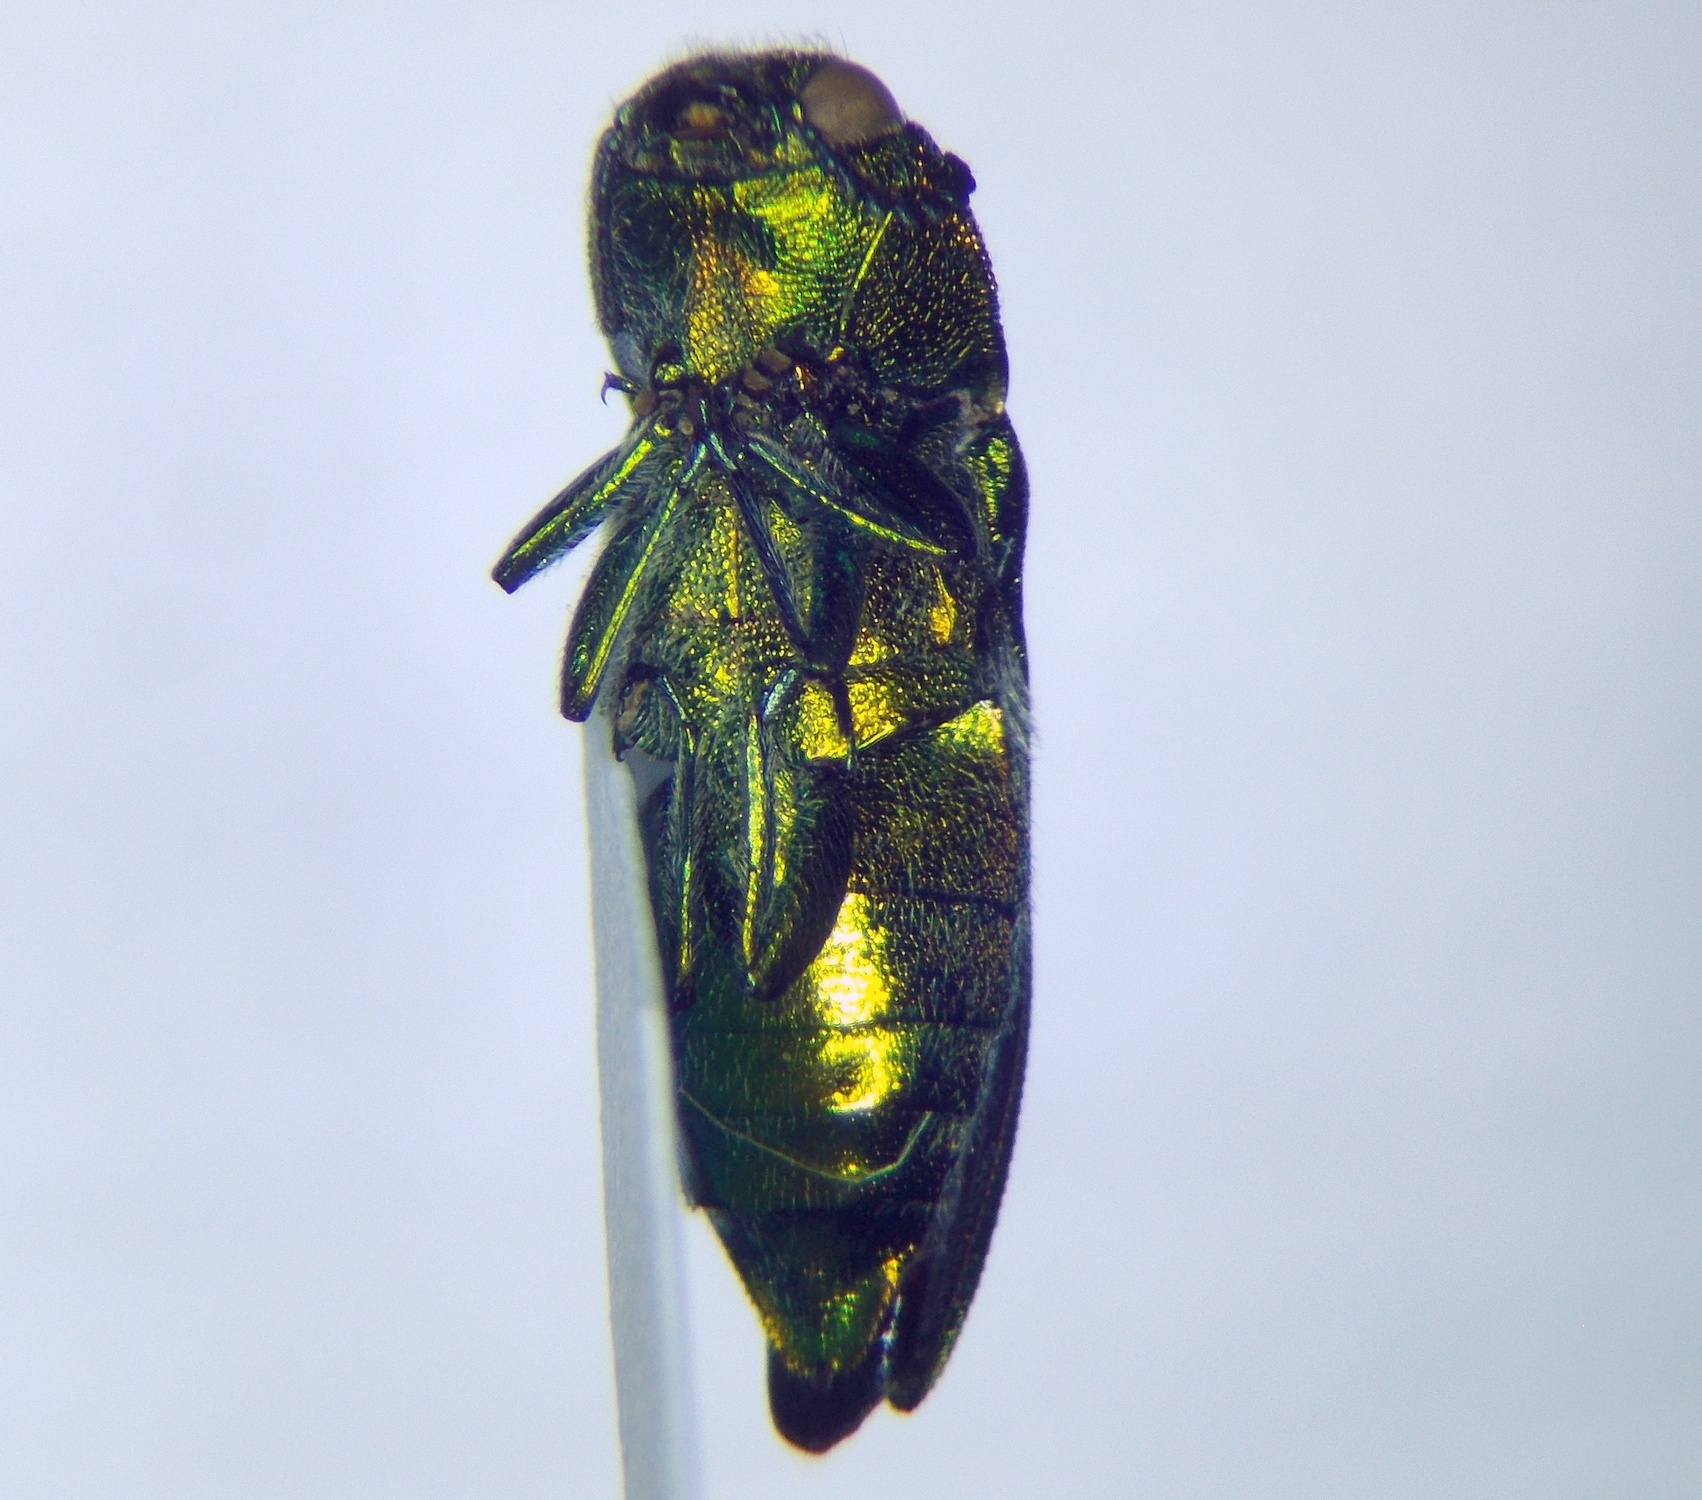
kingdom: Animalia
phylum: Arthropoda
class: Insecta
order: Coleoptera
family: Buprestidae
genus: Anthaxia
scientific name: Anthaxia hungarica
